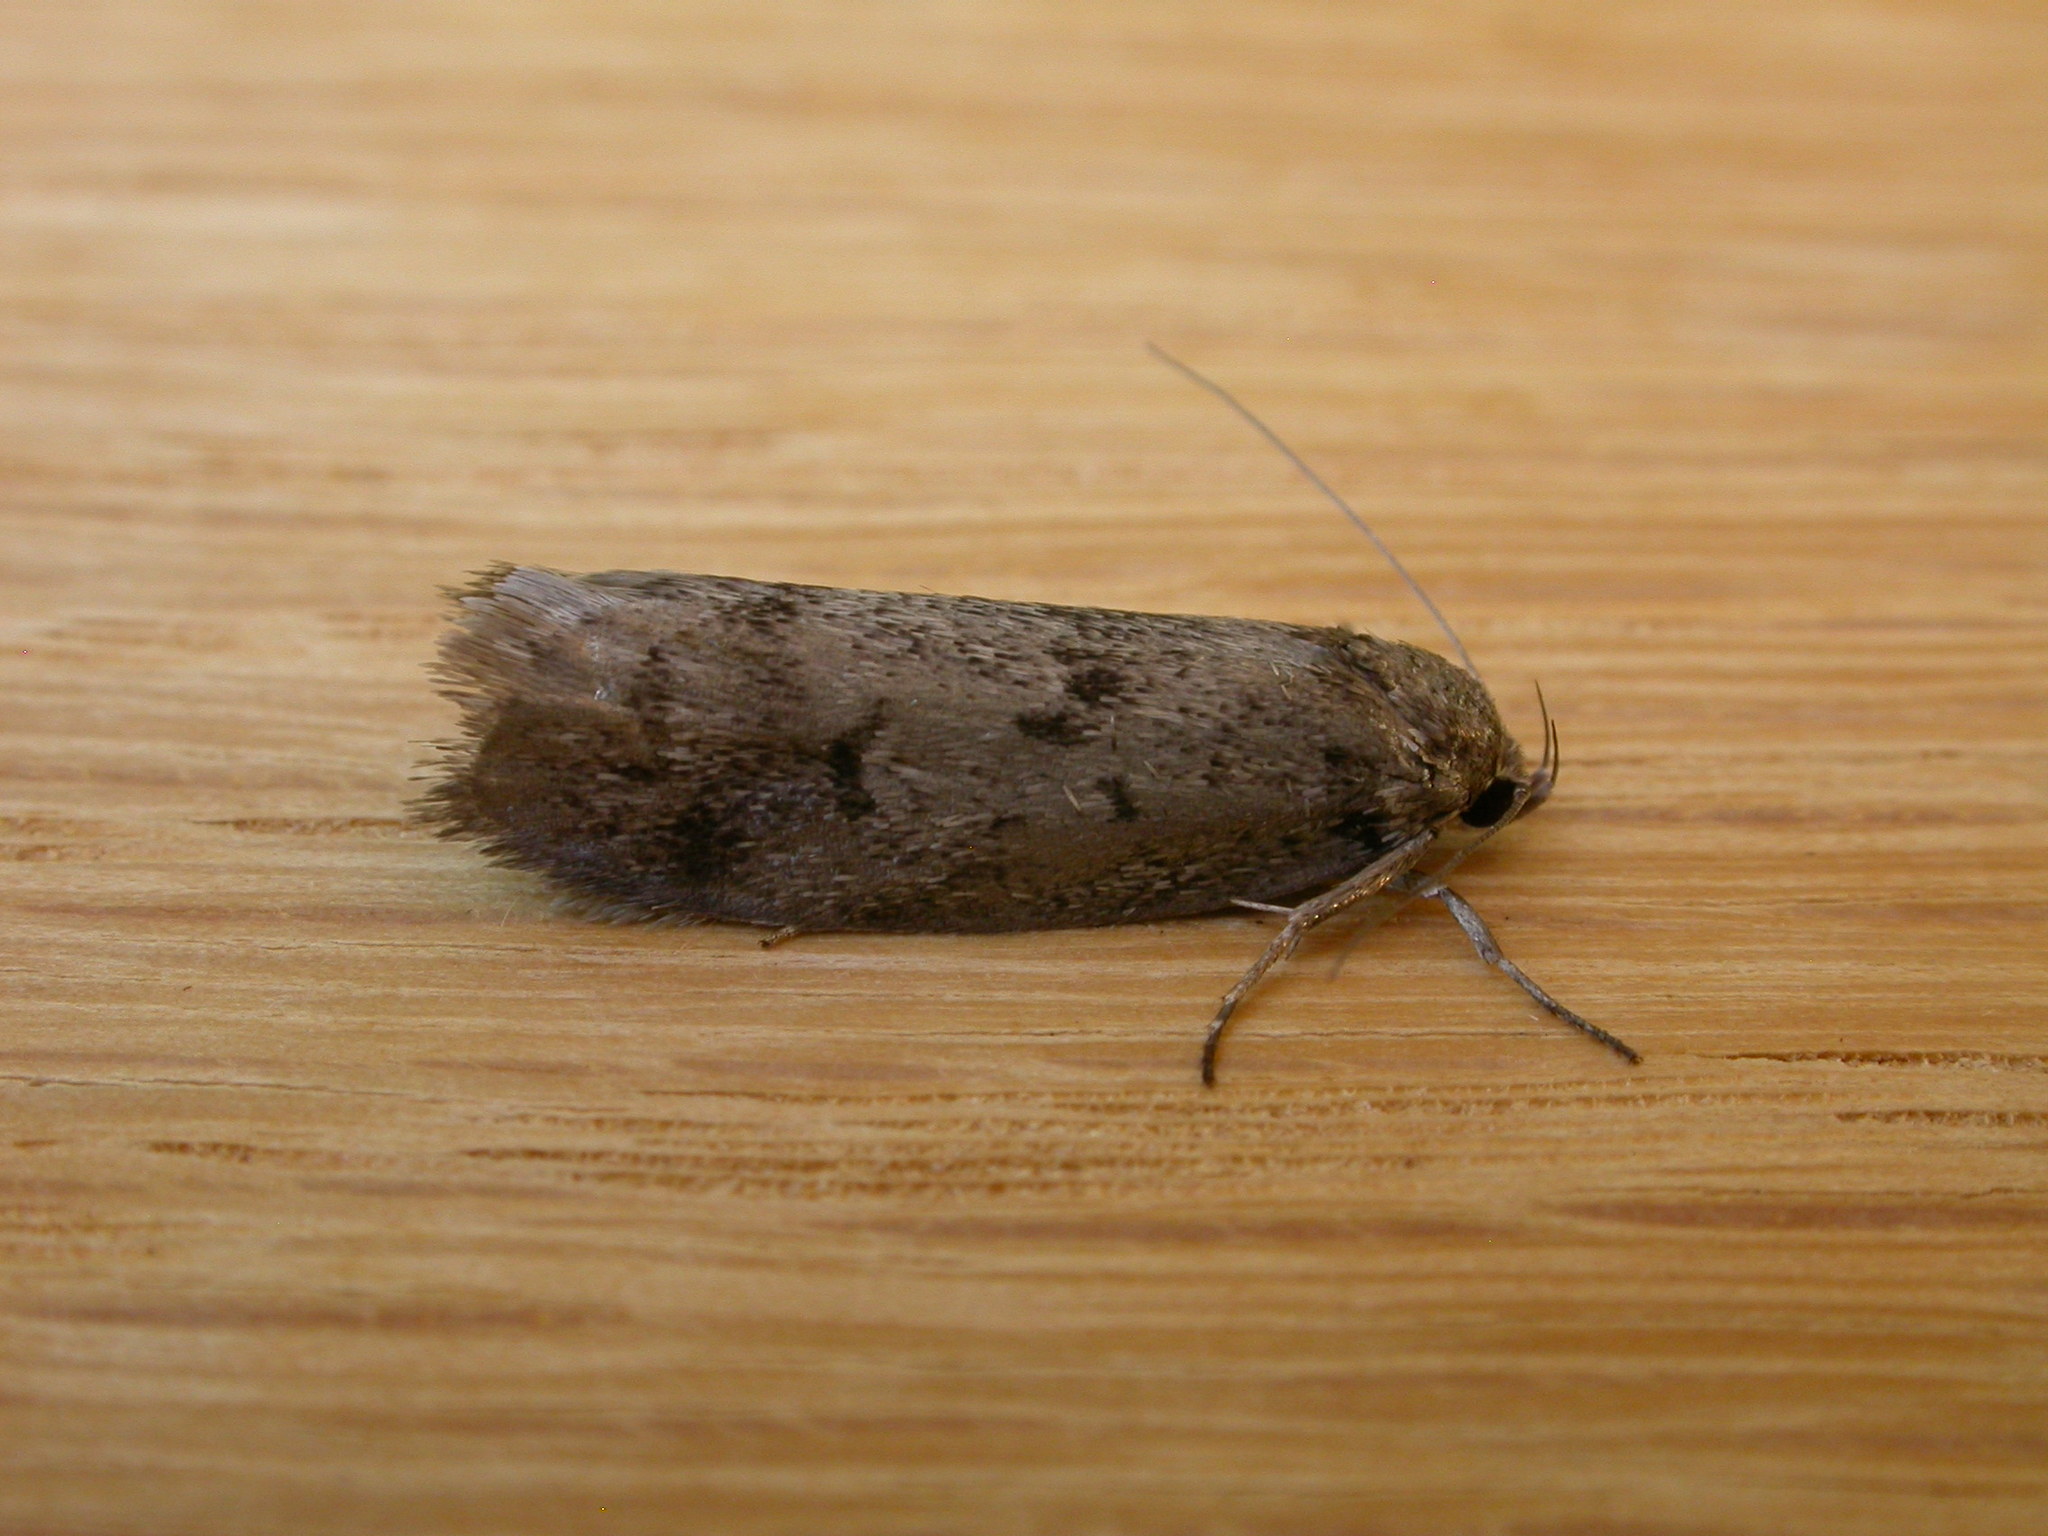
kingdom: Animalia
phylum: Arthropoda
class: Insecta
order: Lepidoptera
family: Oecophoridae
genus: Ericrypsina
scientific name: Ericrypsina chorodoxa
